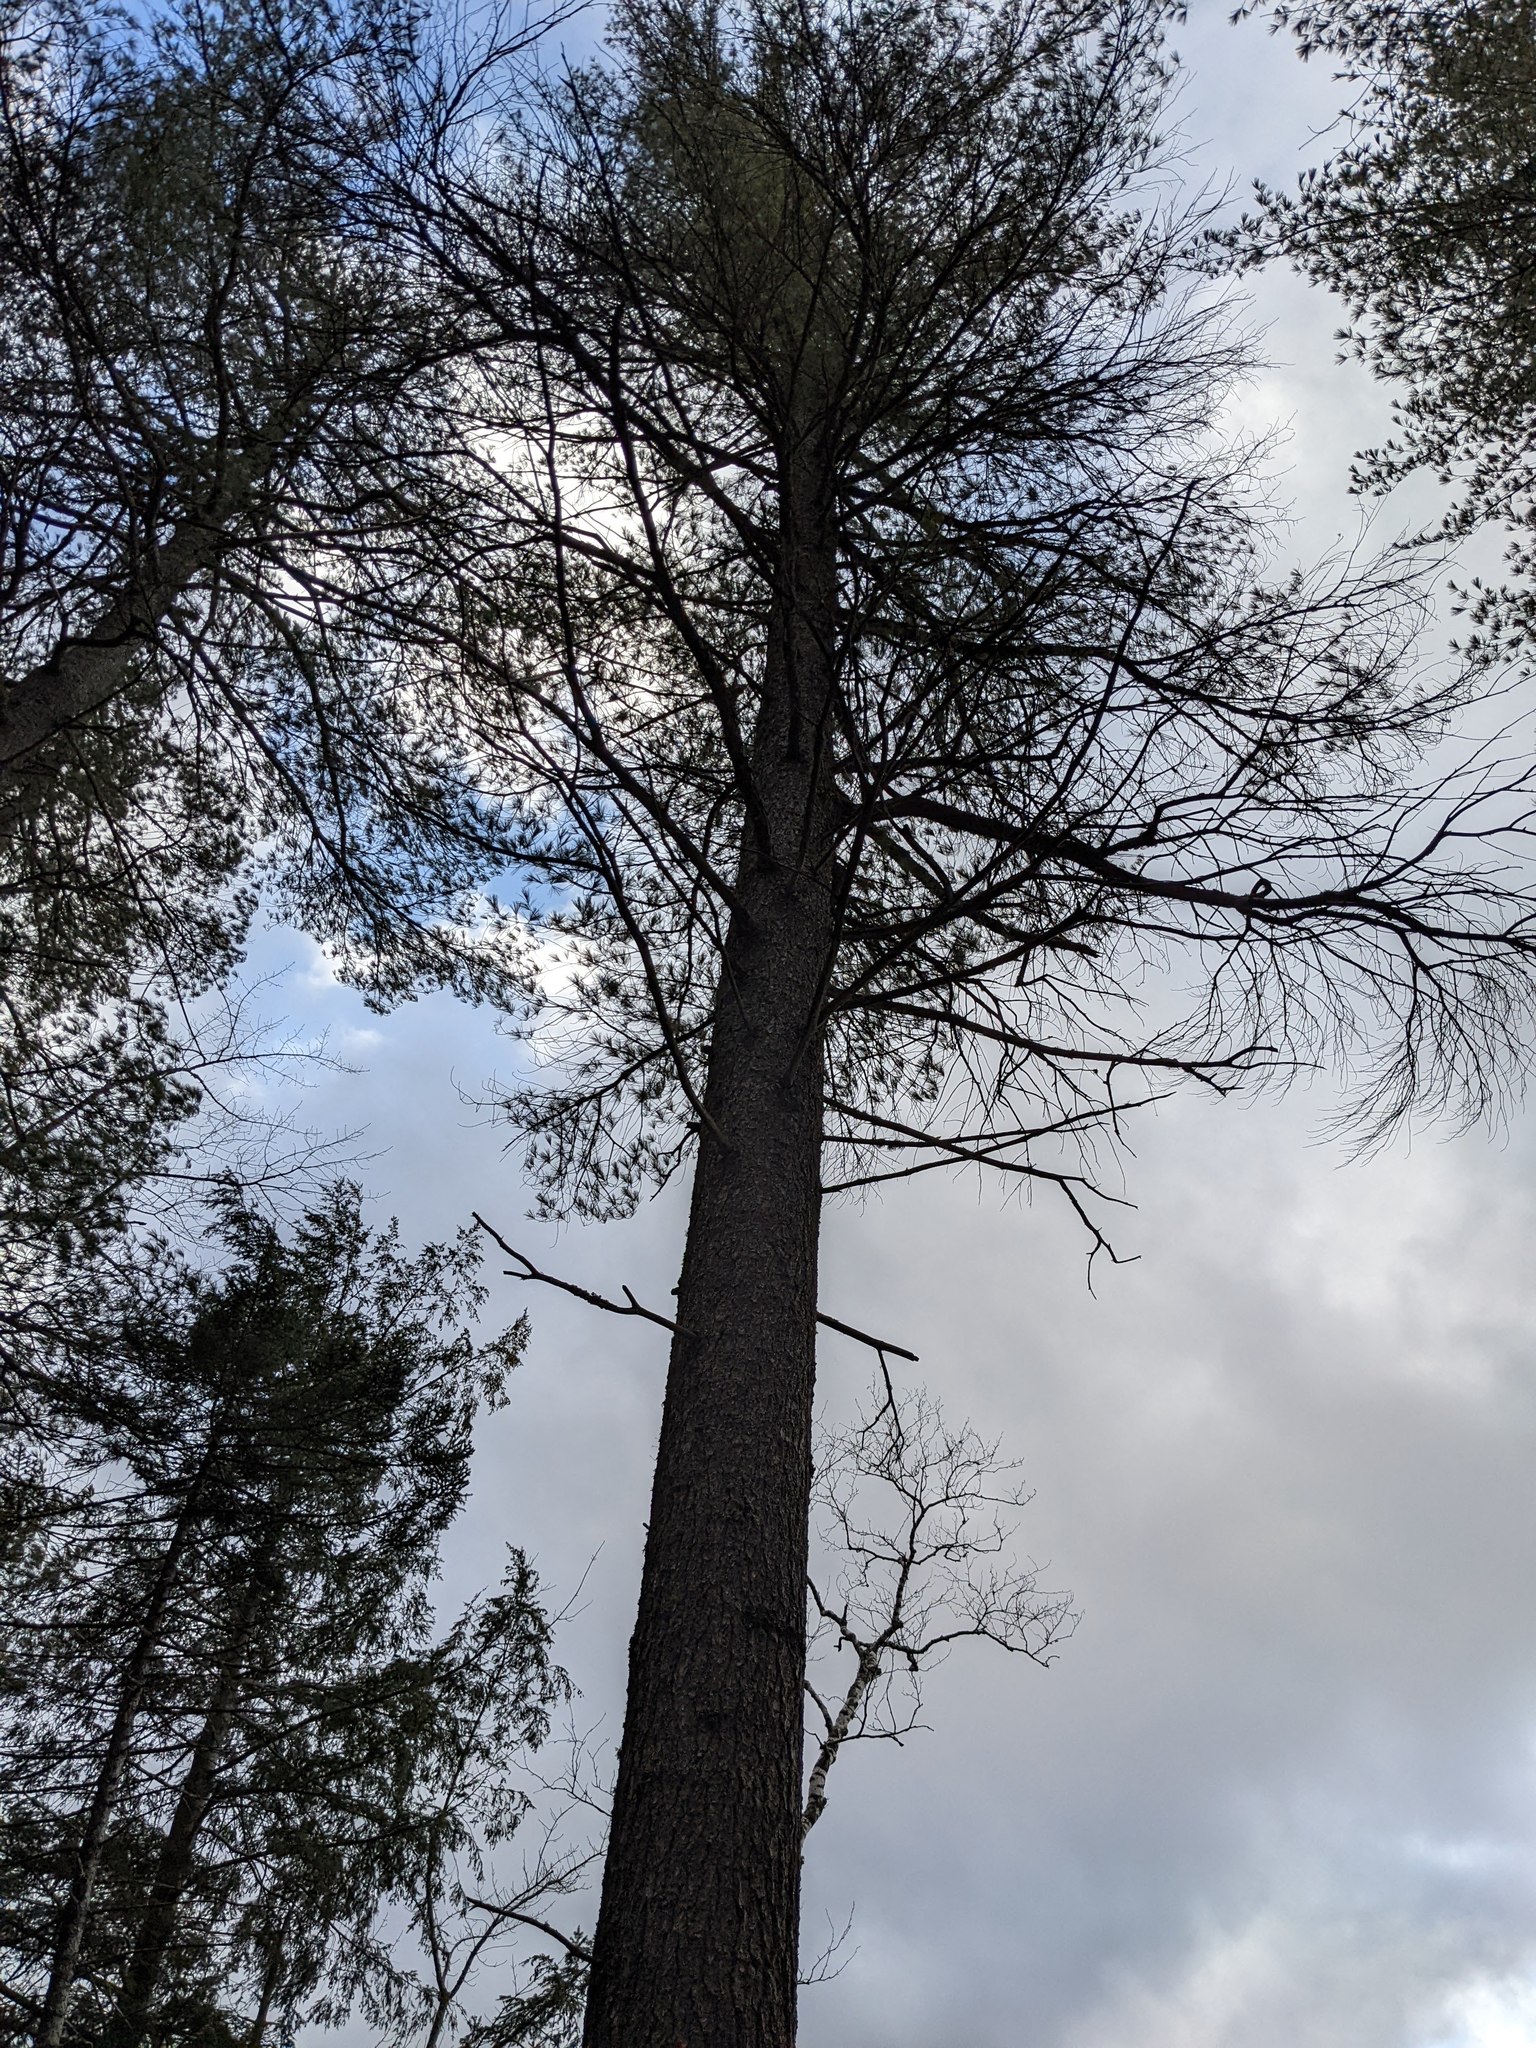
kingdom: Plantae
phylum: Tracheophyta
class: Pinopsida
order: Pinales
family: Pinaceae
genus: Pinus
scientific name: Pinus strobus
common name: Weymouth pine
